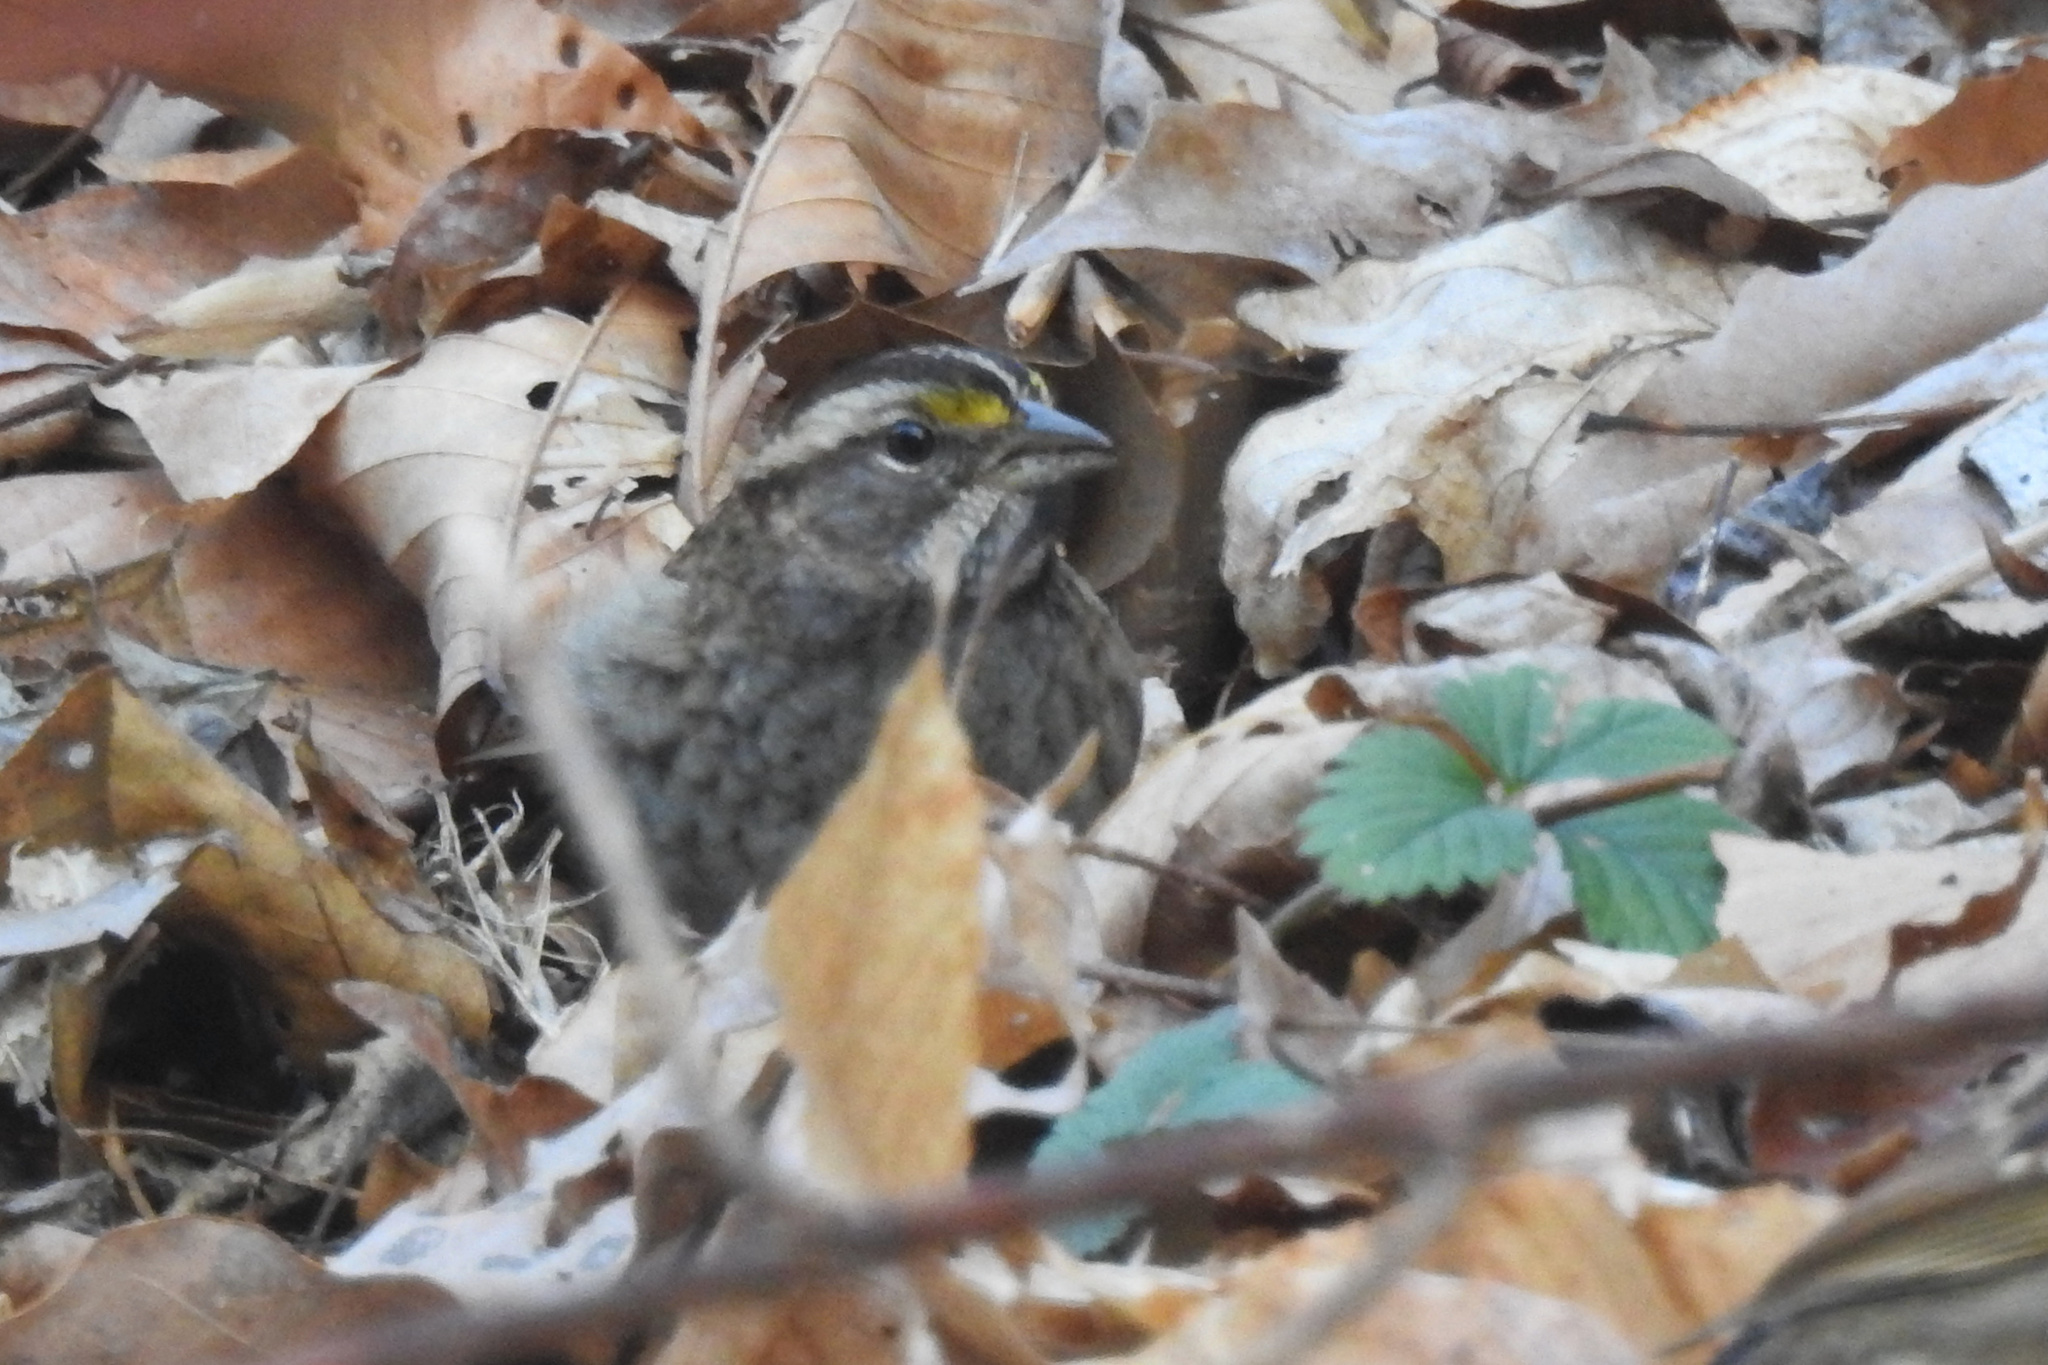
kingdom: Animalia
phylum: Chordata
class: Aves
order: Passeriformes
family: Passerellidae
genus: Zonotrichia
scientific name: Zonotrichia albicollis
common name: White-throated sparrow
